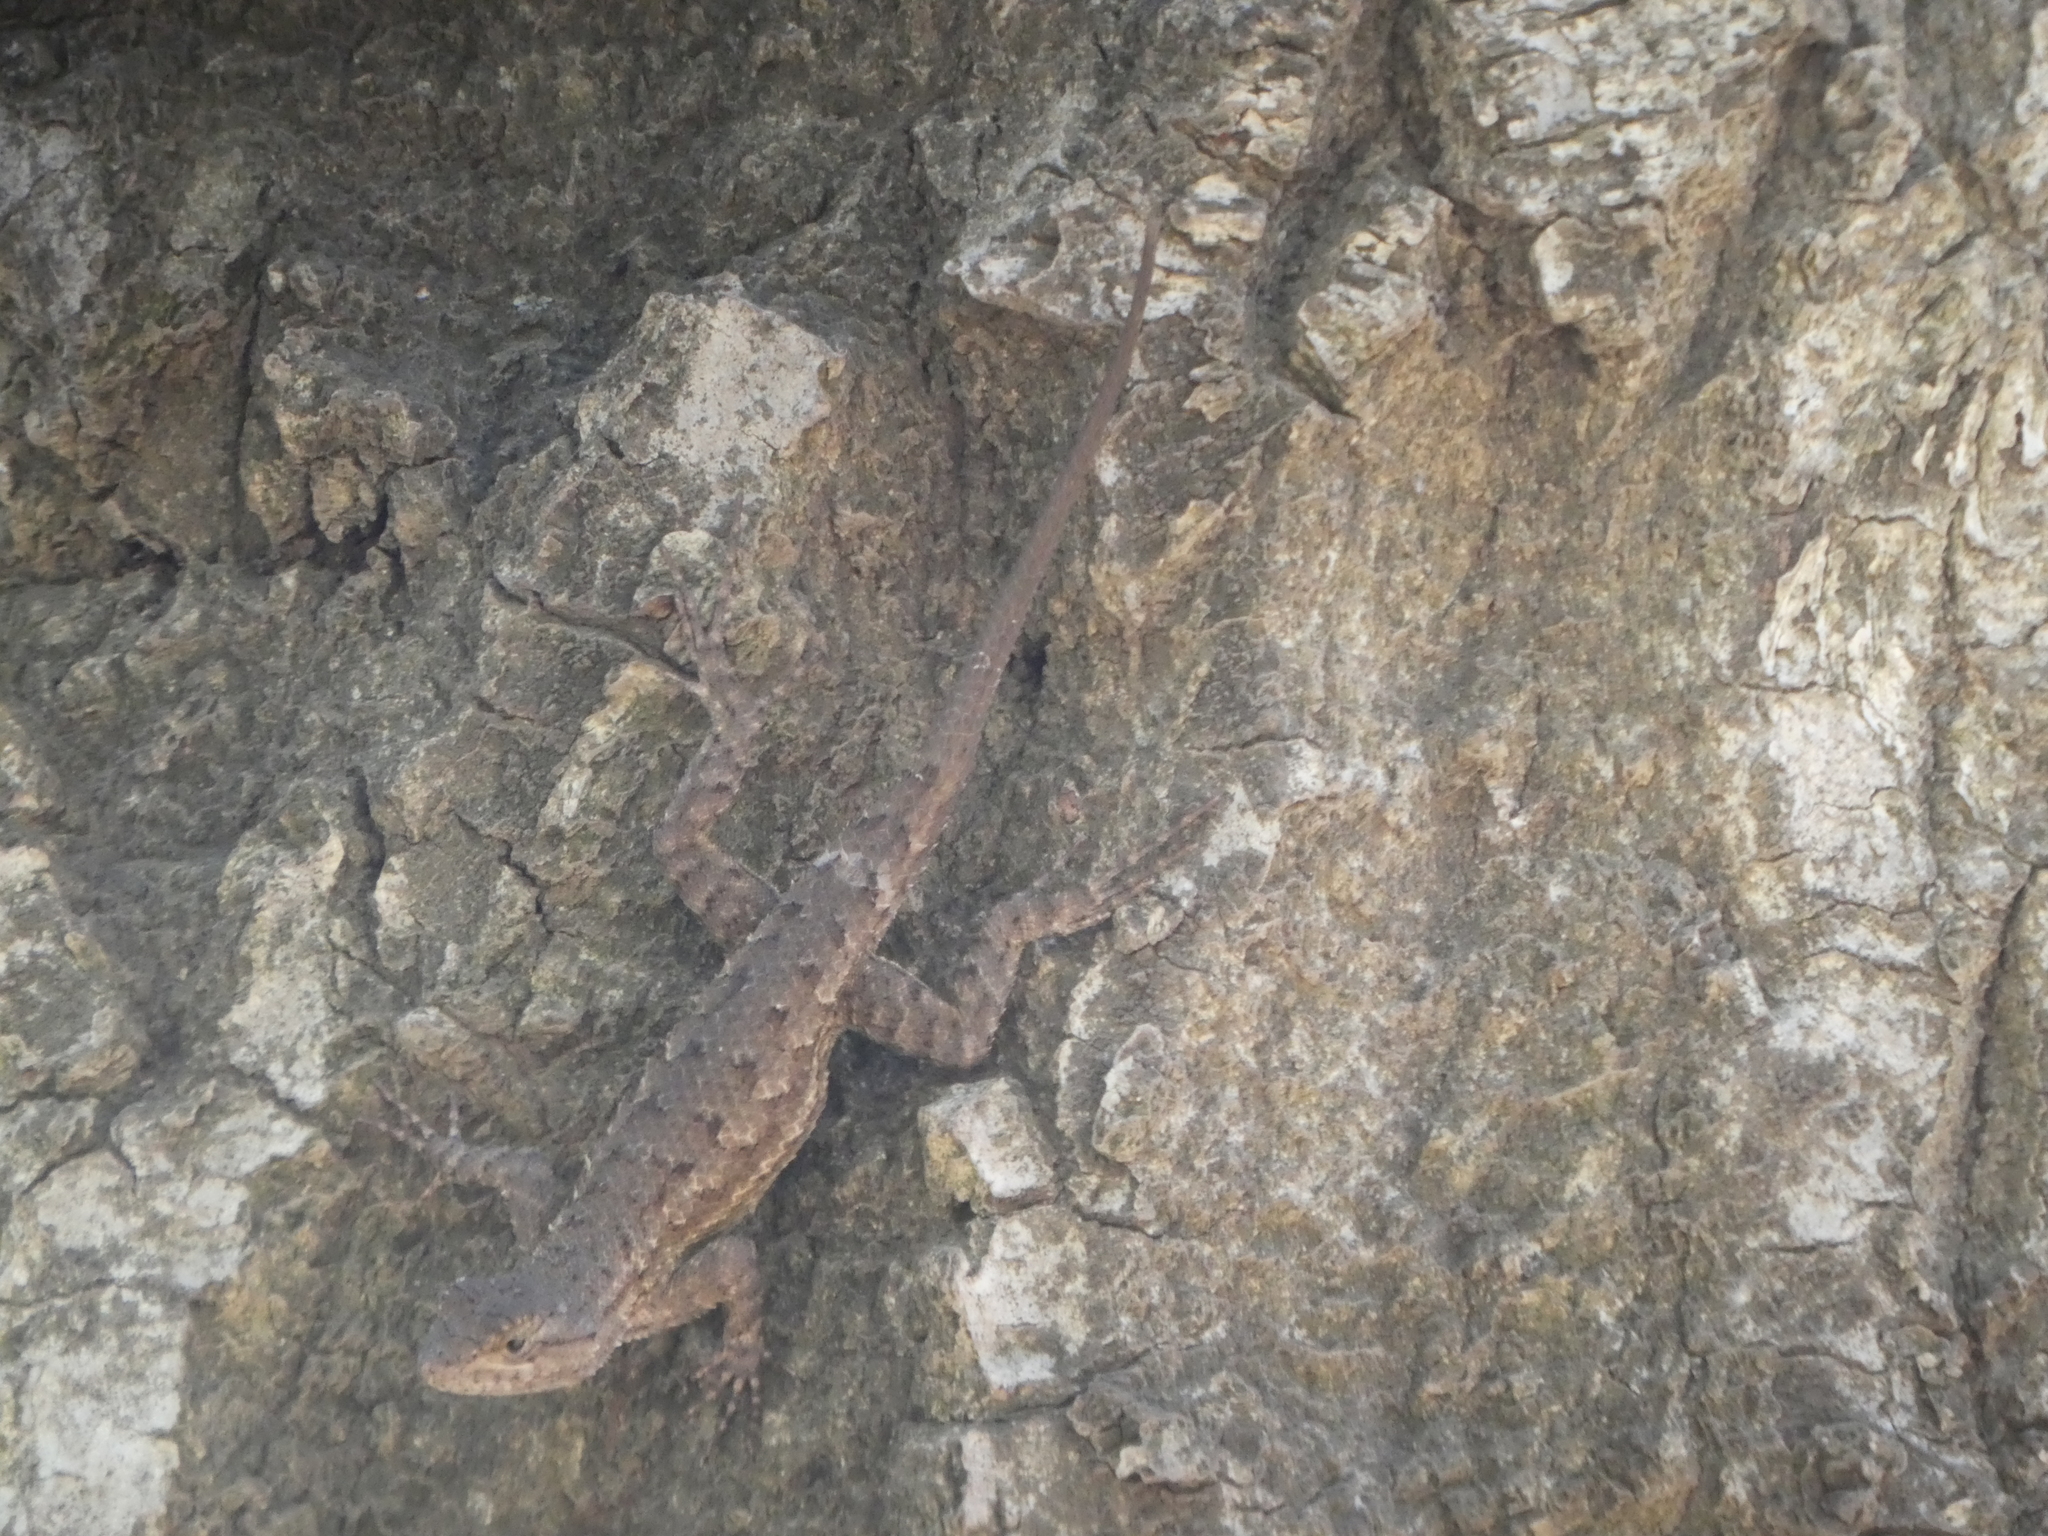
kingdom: Animalia
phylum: Chordata
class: Squamata
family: Phrynosomatidae
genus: Sceloporus
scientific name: Sceloporus occidentalis
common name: Western fence lizard
